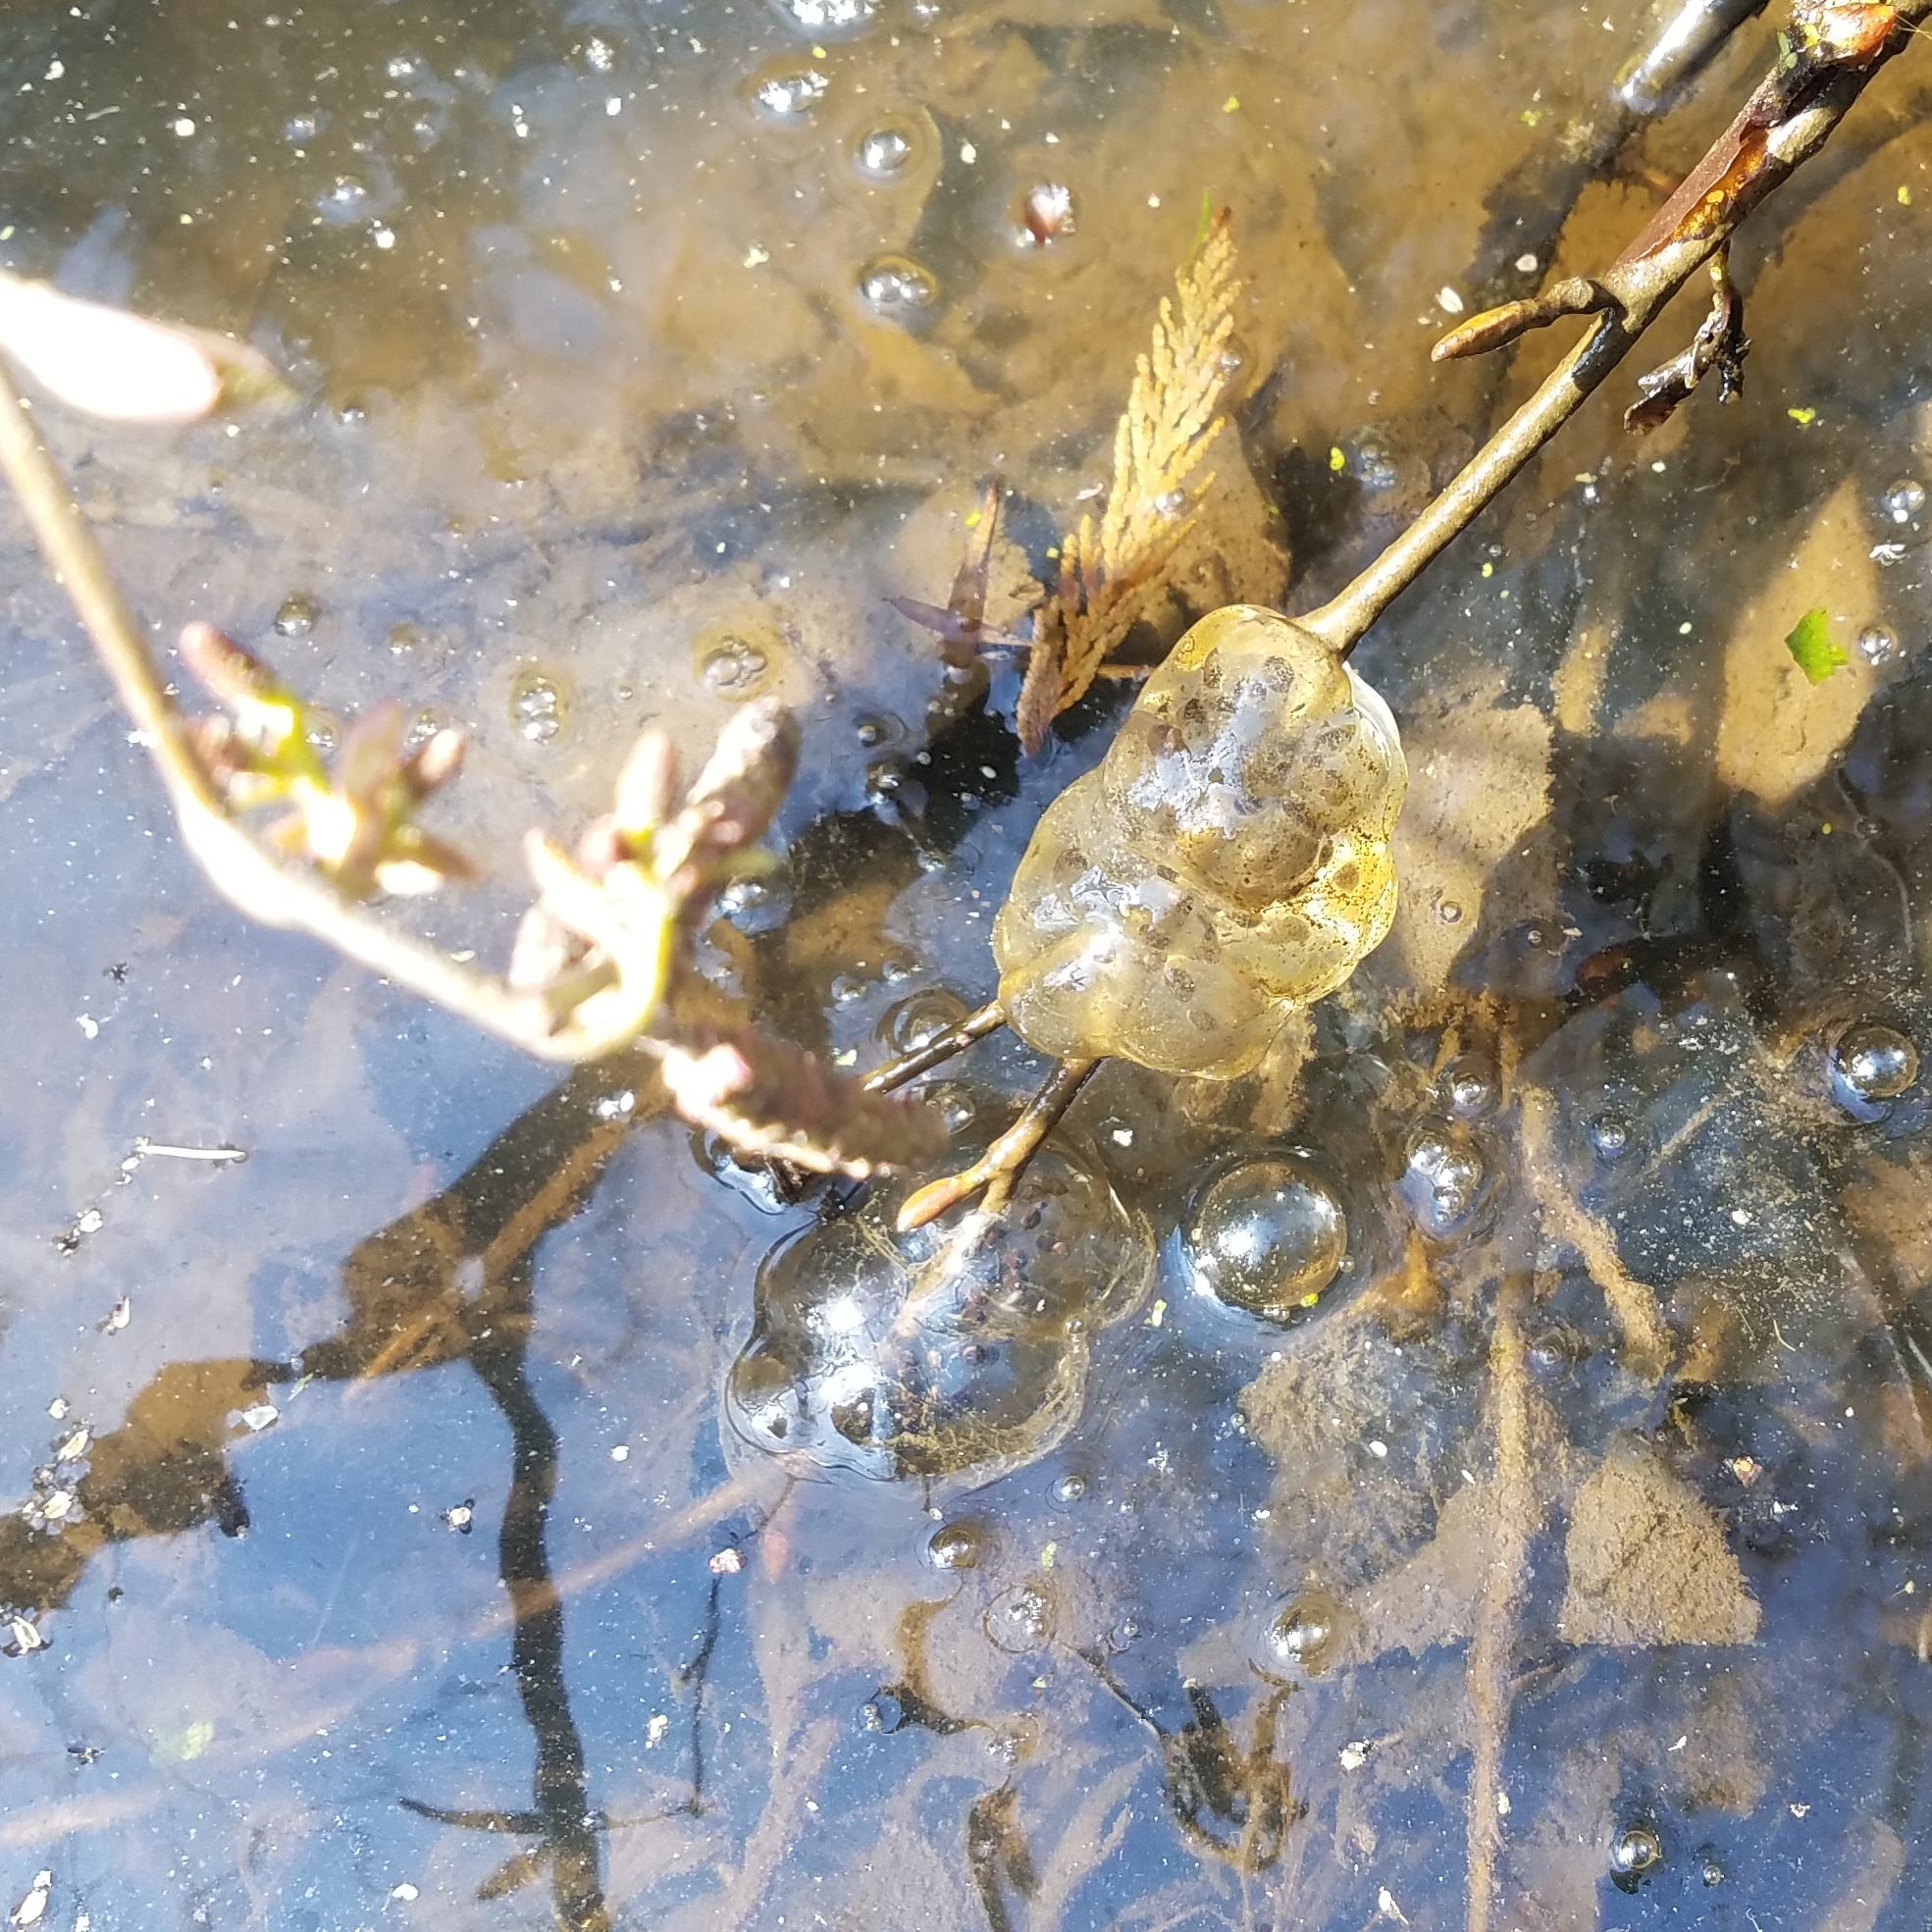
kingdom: Animalia
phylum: Chordata
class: Amphibia
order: Caudata
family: Ambystomatidae
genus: Ambystoma
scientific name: Ambystoma gracile
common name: Northwestern salamander
